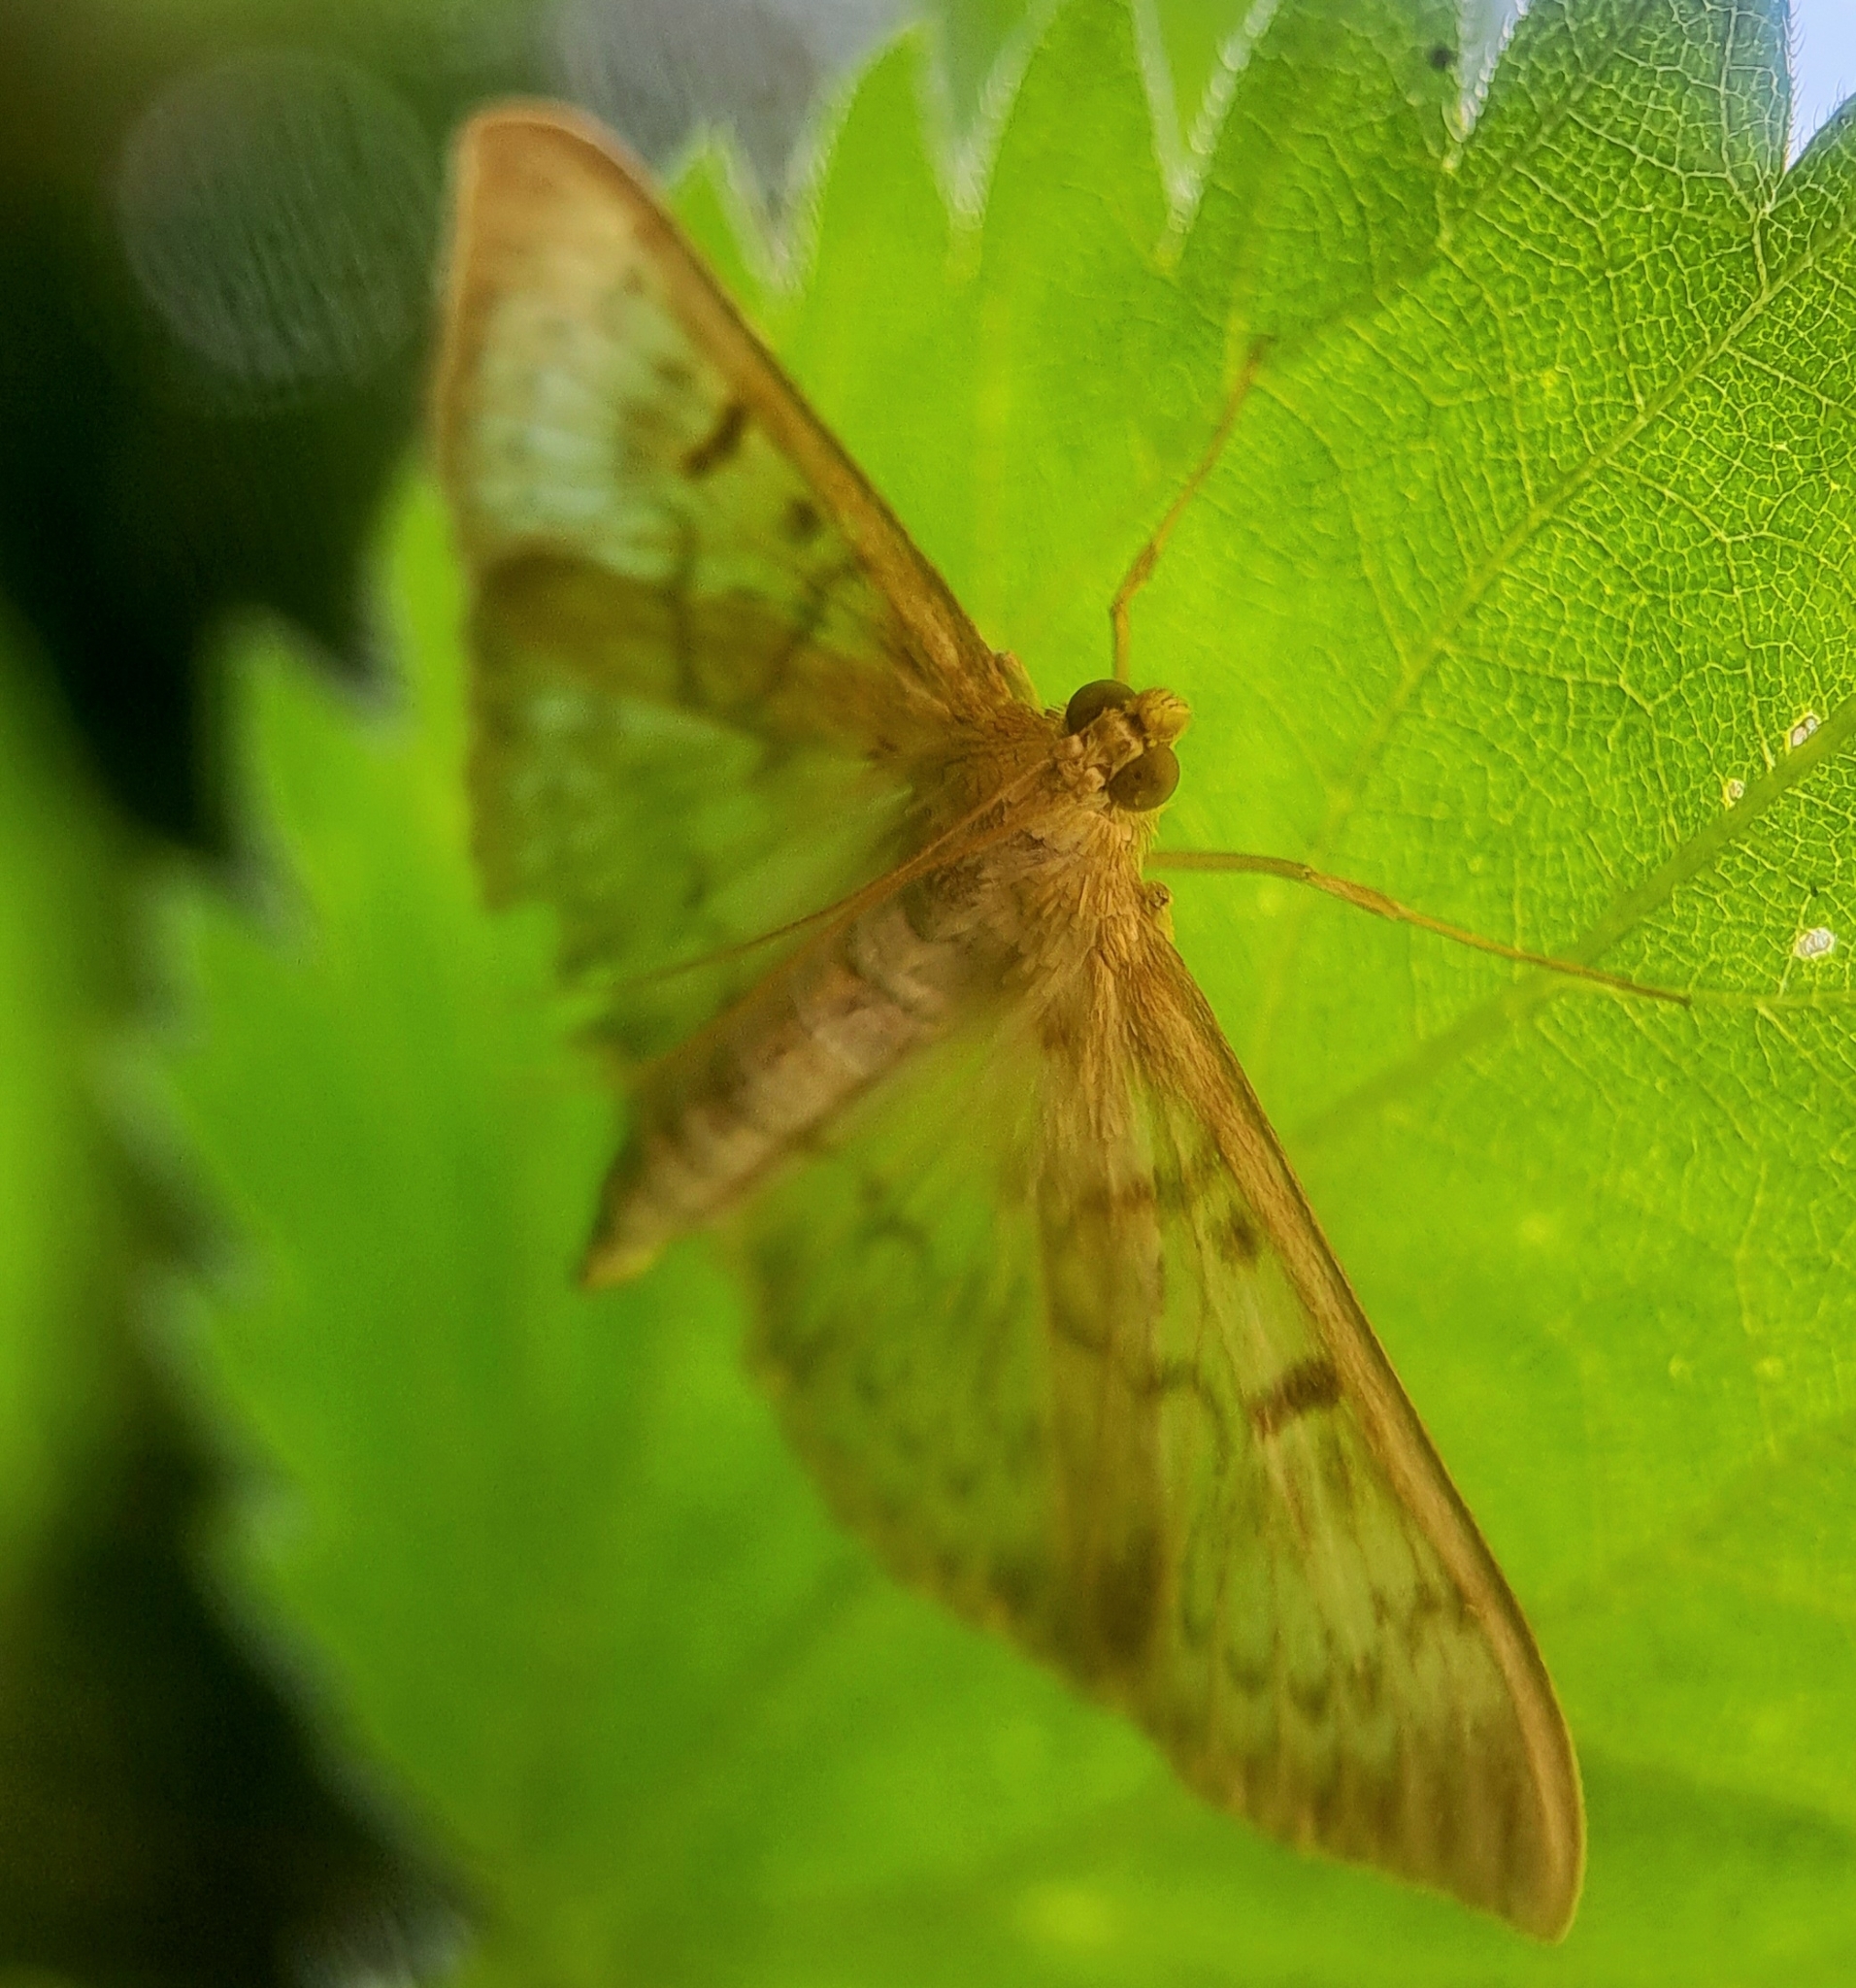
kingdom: Animalia
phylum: Arthropoda
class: Insecta
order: Lepidoptera
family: Crambidae
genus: Patania
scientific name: Patania ruralis
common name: Mother of pearl
